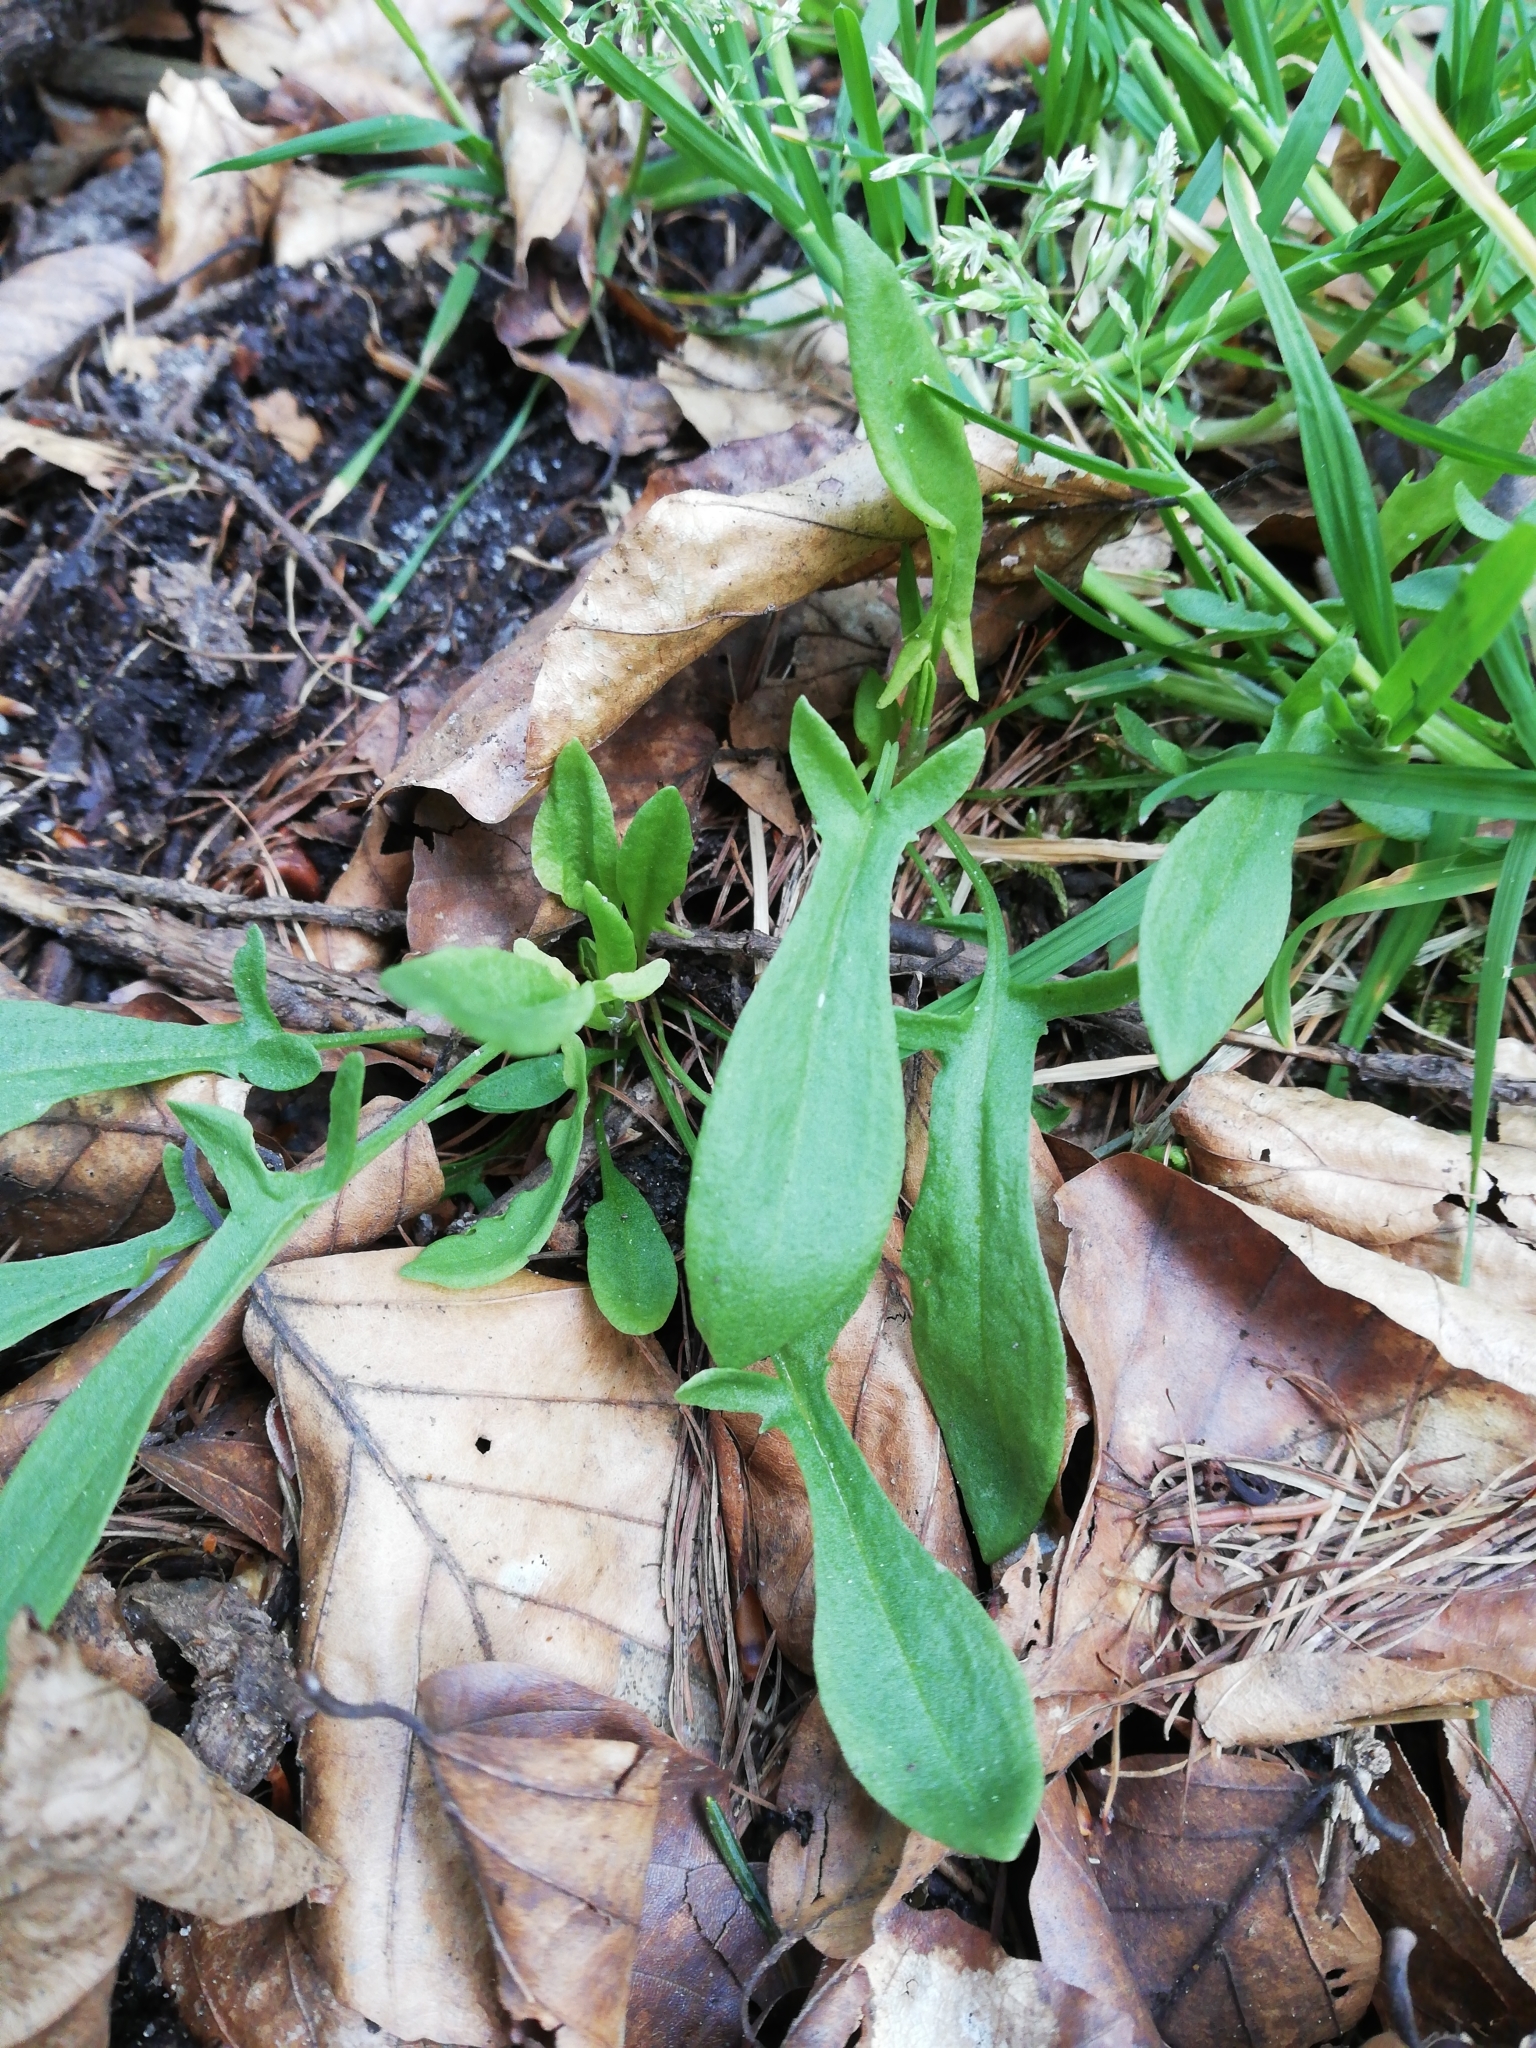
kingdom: Plantae
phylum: Tracheophyta
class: Magnoliopsida
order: Caryophyllales
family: Polygonaceae
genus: Rumex
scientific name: Rumex acetosella
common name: Common sheep sorrel
